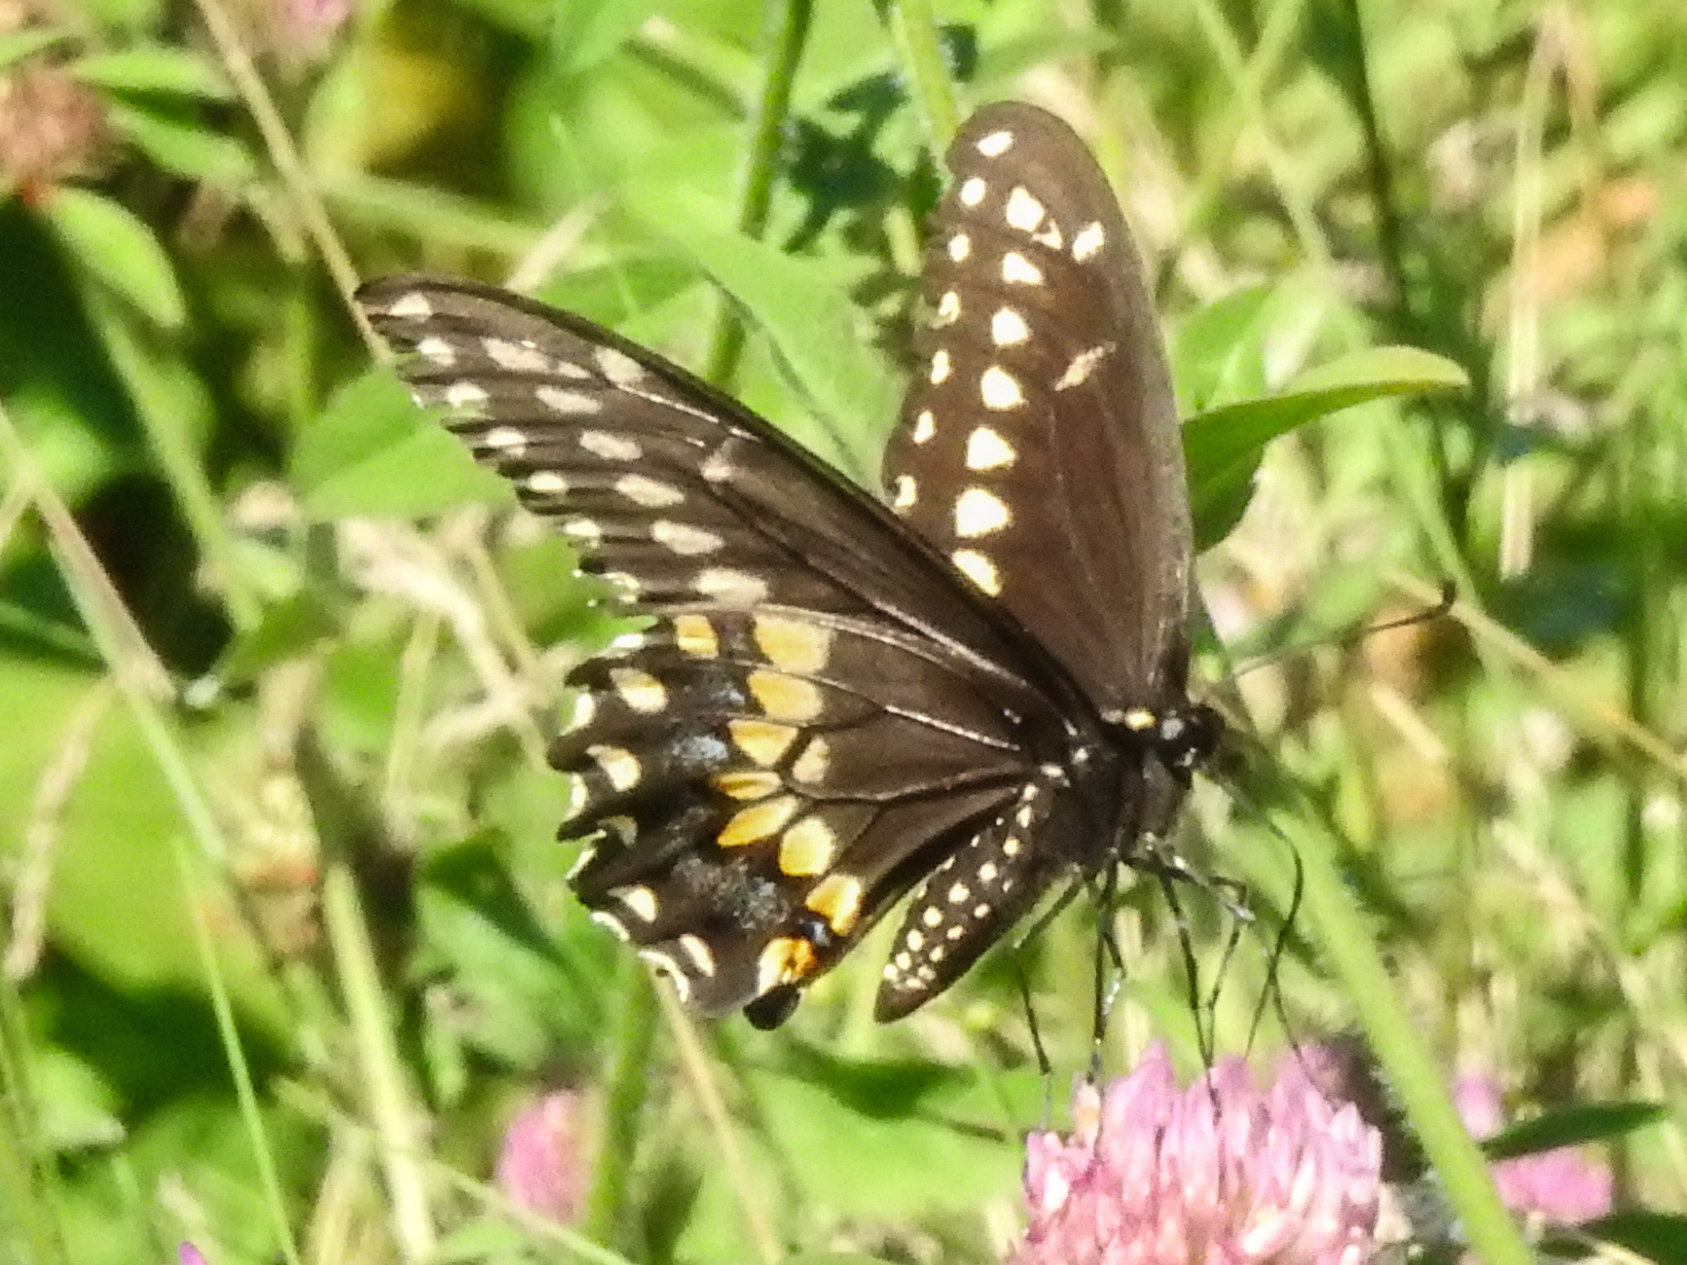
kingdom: Animalia
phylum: Arthropoda
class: Insecta
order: Lepidoptera
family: Papilionidae
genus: Papilio
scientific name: Papilio polyxenes
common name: Black swallowtail
